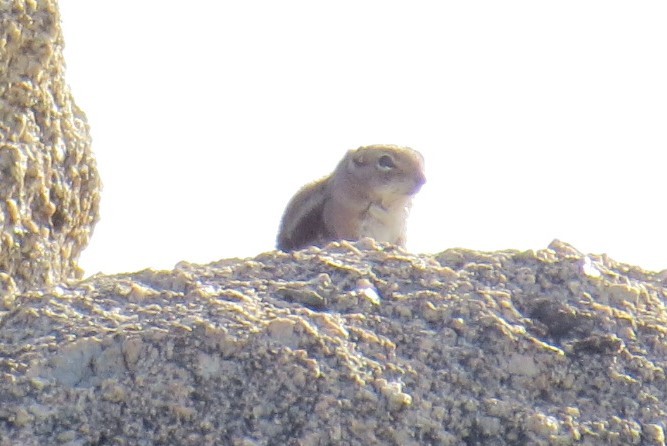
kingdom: Animalia
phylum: Chordata
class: Mammalia
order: Rodentia
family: Sciuridae
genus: Ammospermophilus
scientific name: Ammospermophilus interpres
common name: Texas antelope squirrel
